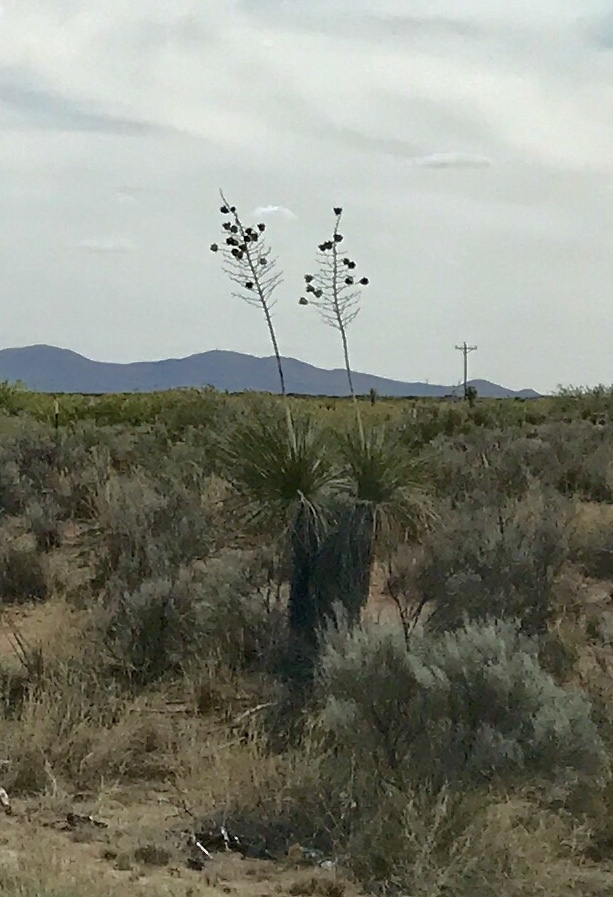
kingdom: Plantae
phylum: Tracheophyta
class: Liliopsida
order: Asparagales
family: Asparagaceae
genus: Yucca
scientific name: Yucca elata
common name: Palmella
